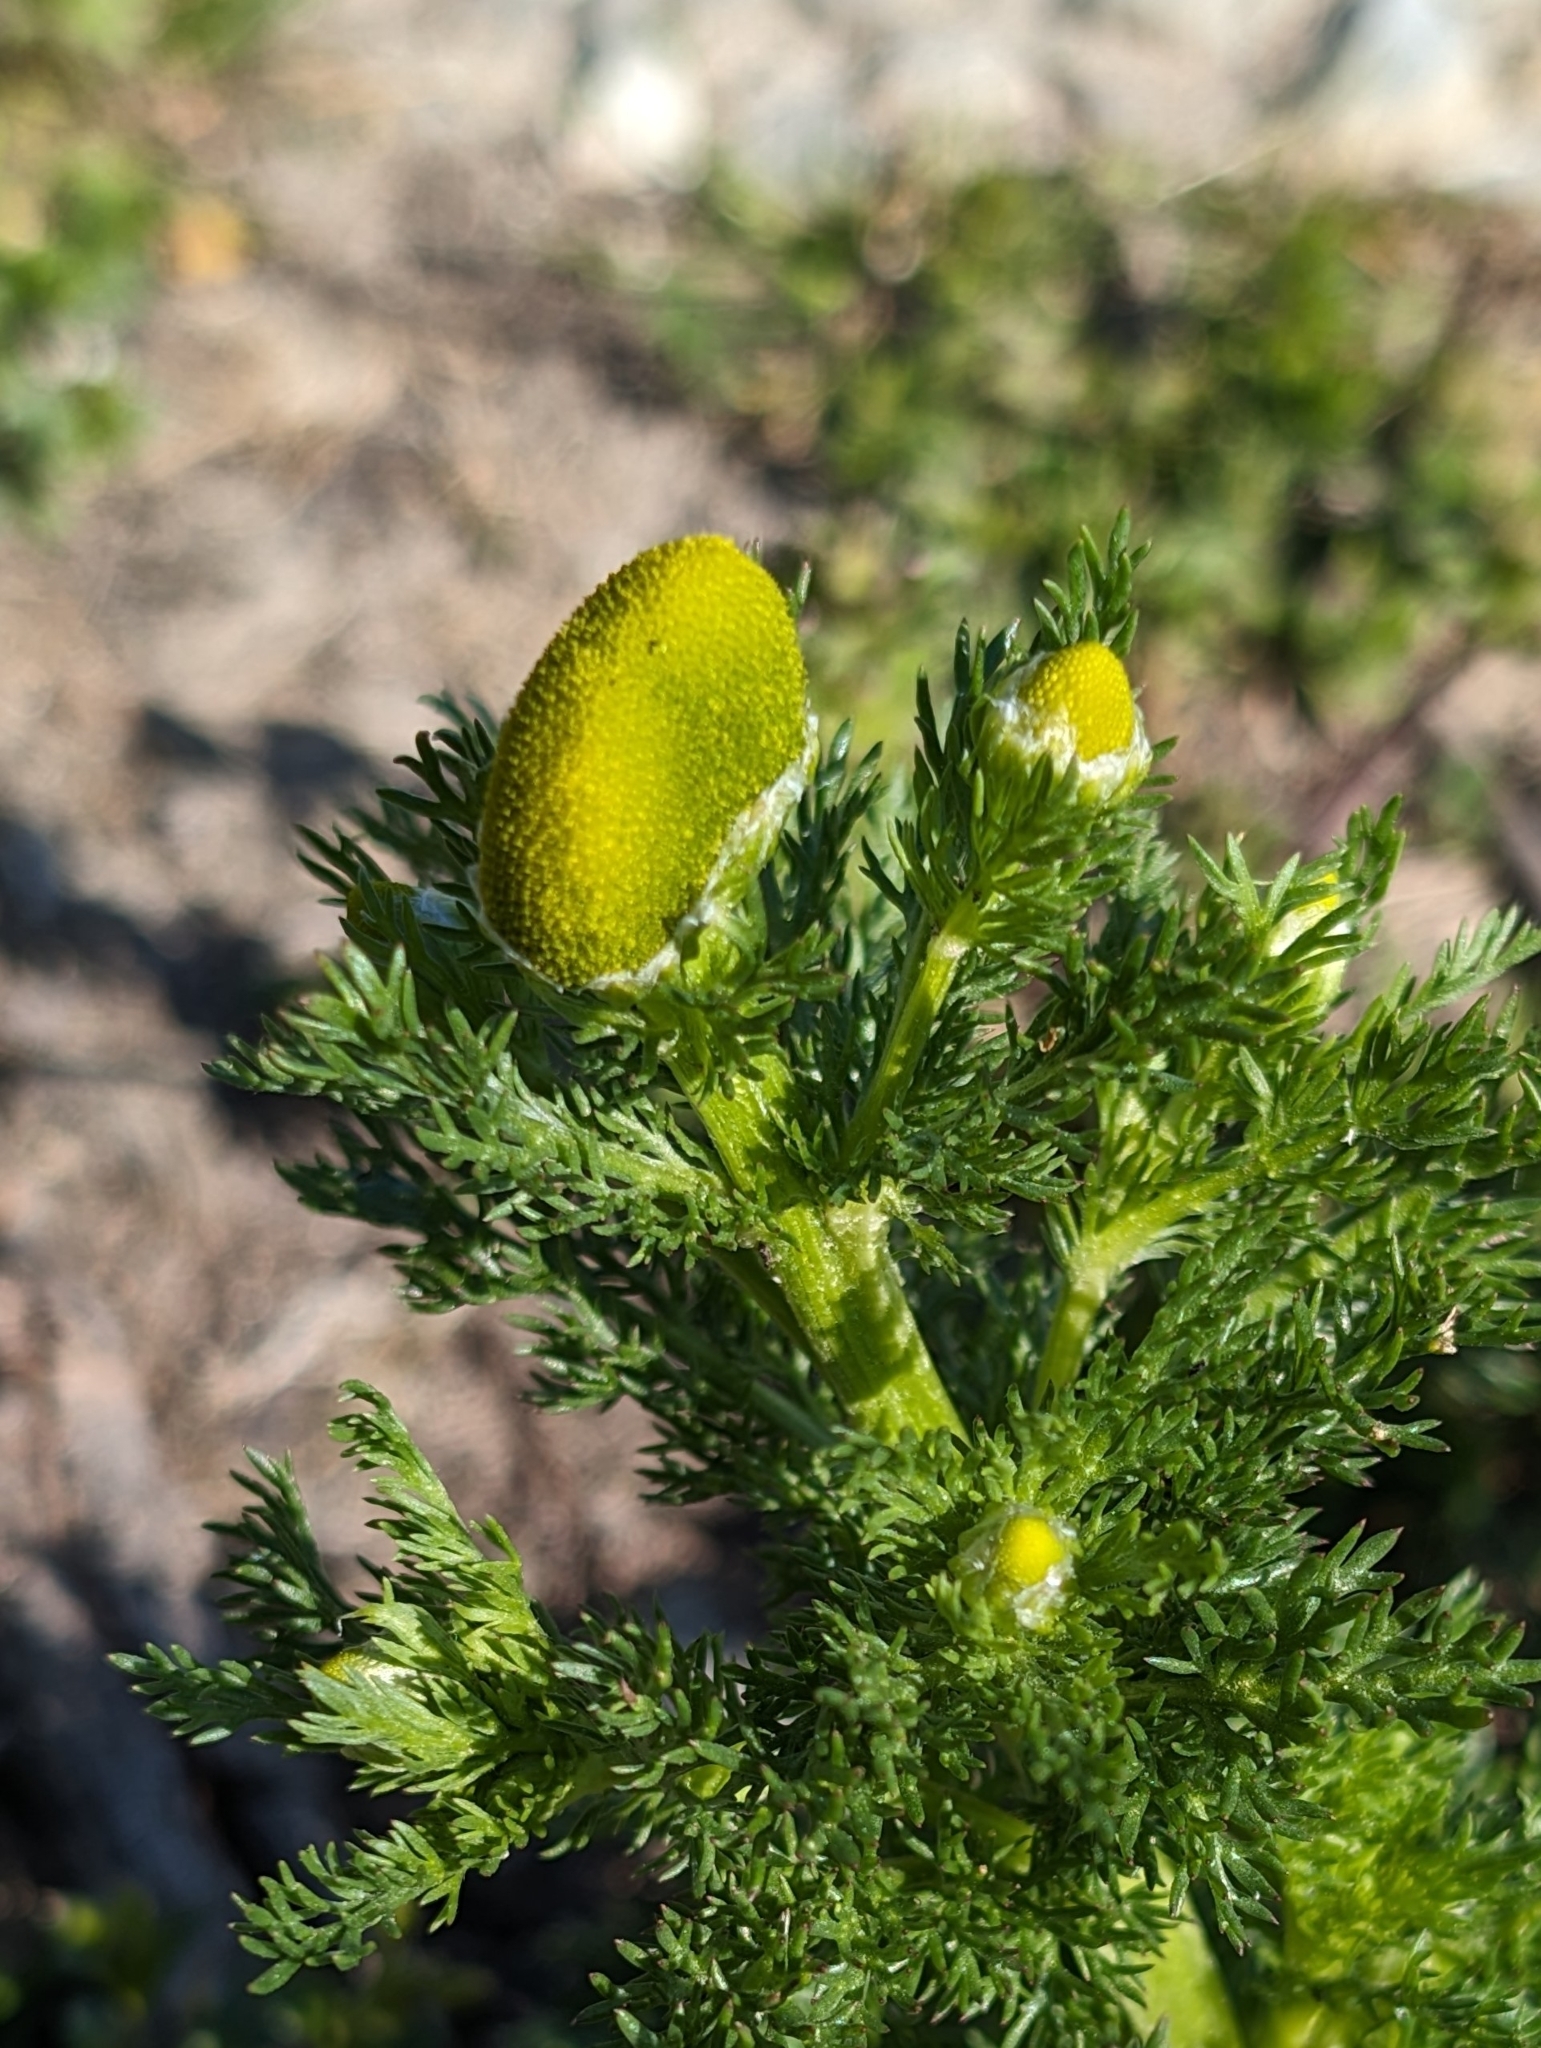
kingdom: Plantae
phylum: Tracheophyta
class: Magnoliopsida
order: Asterales
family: Asteraceae
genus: Matricaria
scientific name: Matricaria discoidea
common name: Disc mayweed
